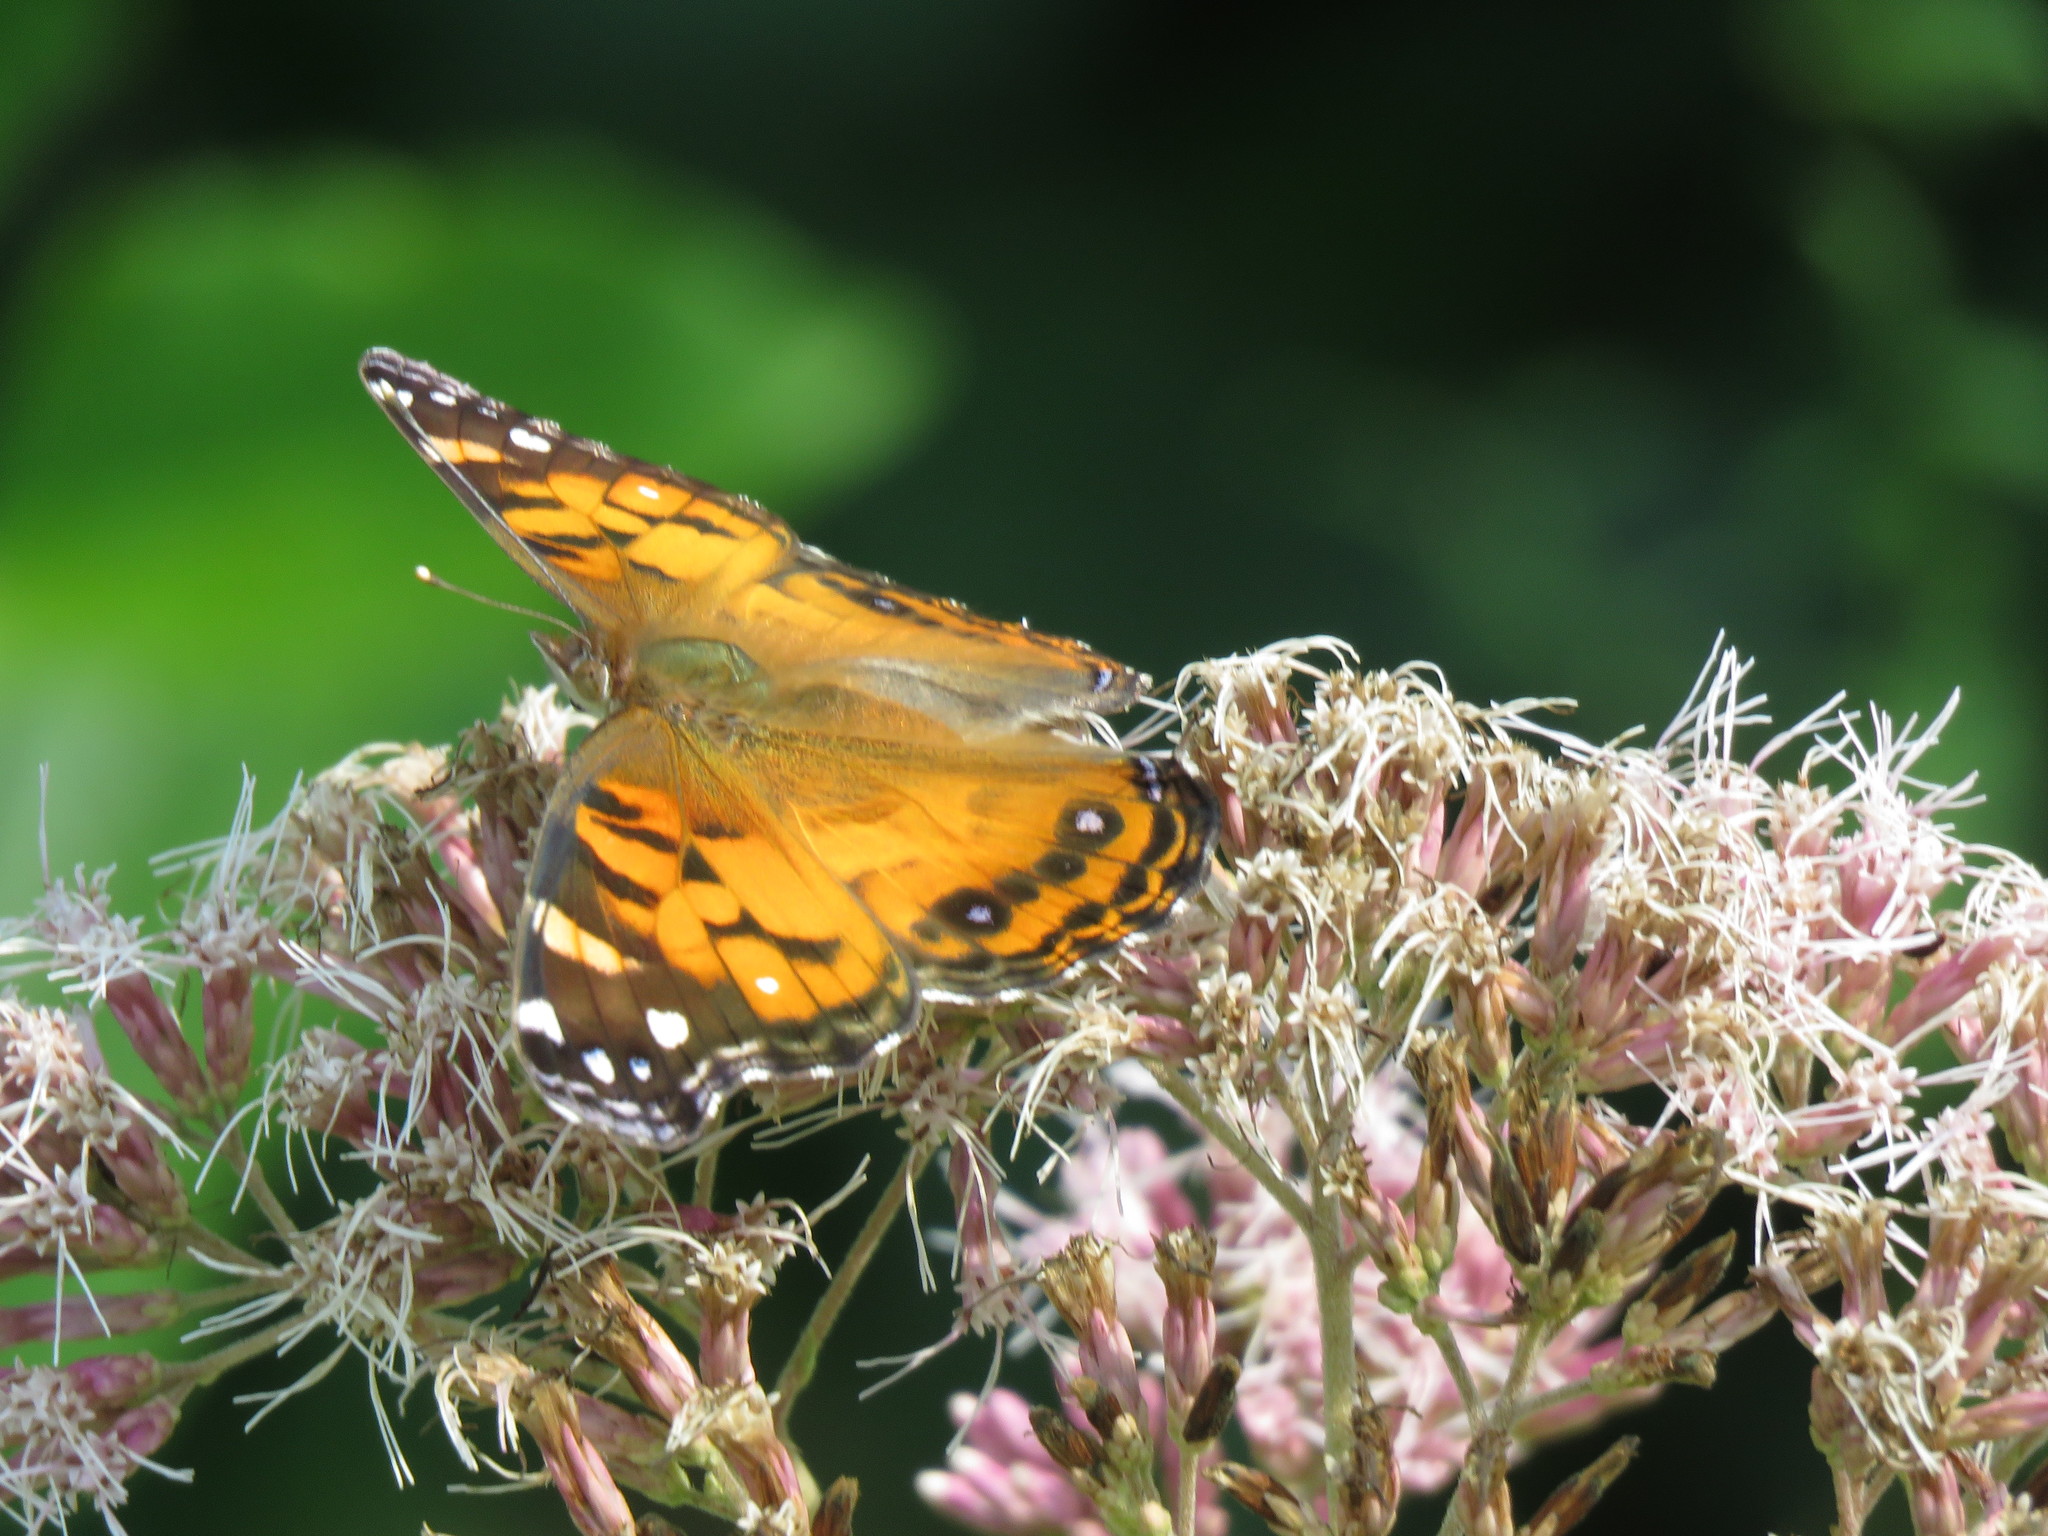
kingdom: Animalia
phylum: Arthropoda
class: Insecta
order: Lepidoptera
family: Nymphalidae
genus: Vanessa
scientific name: Vanessa virginiensis
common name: American lady
